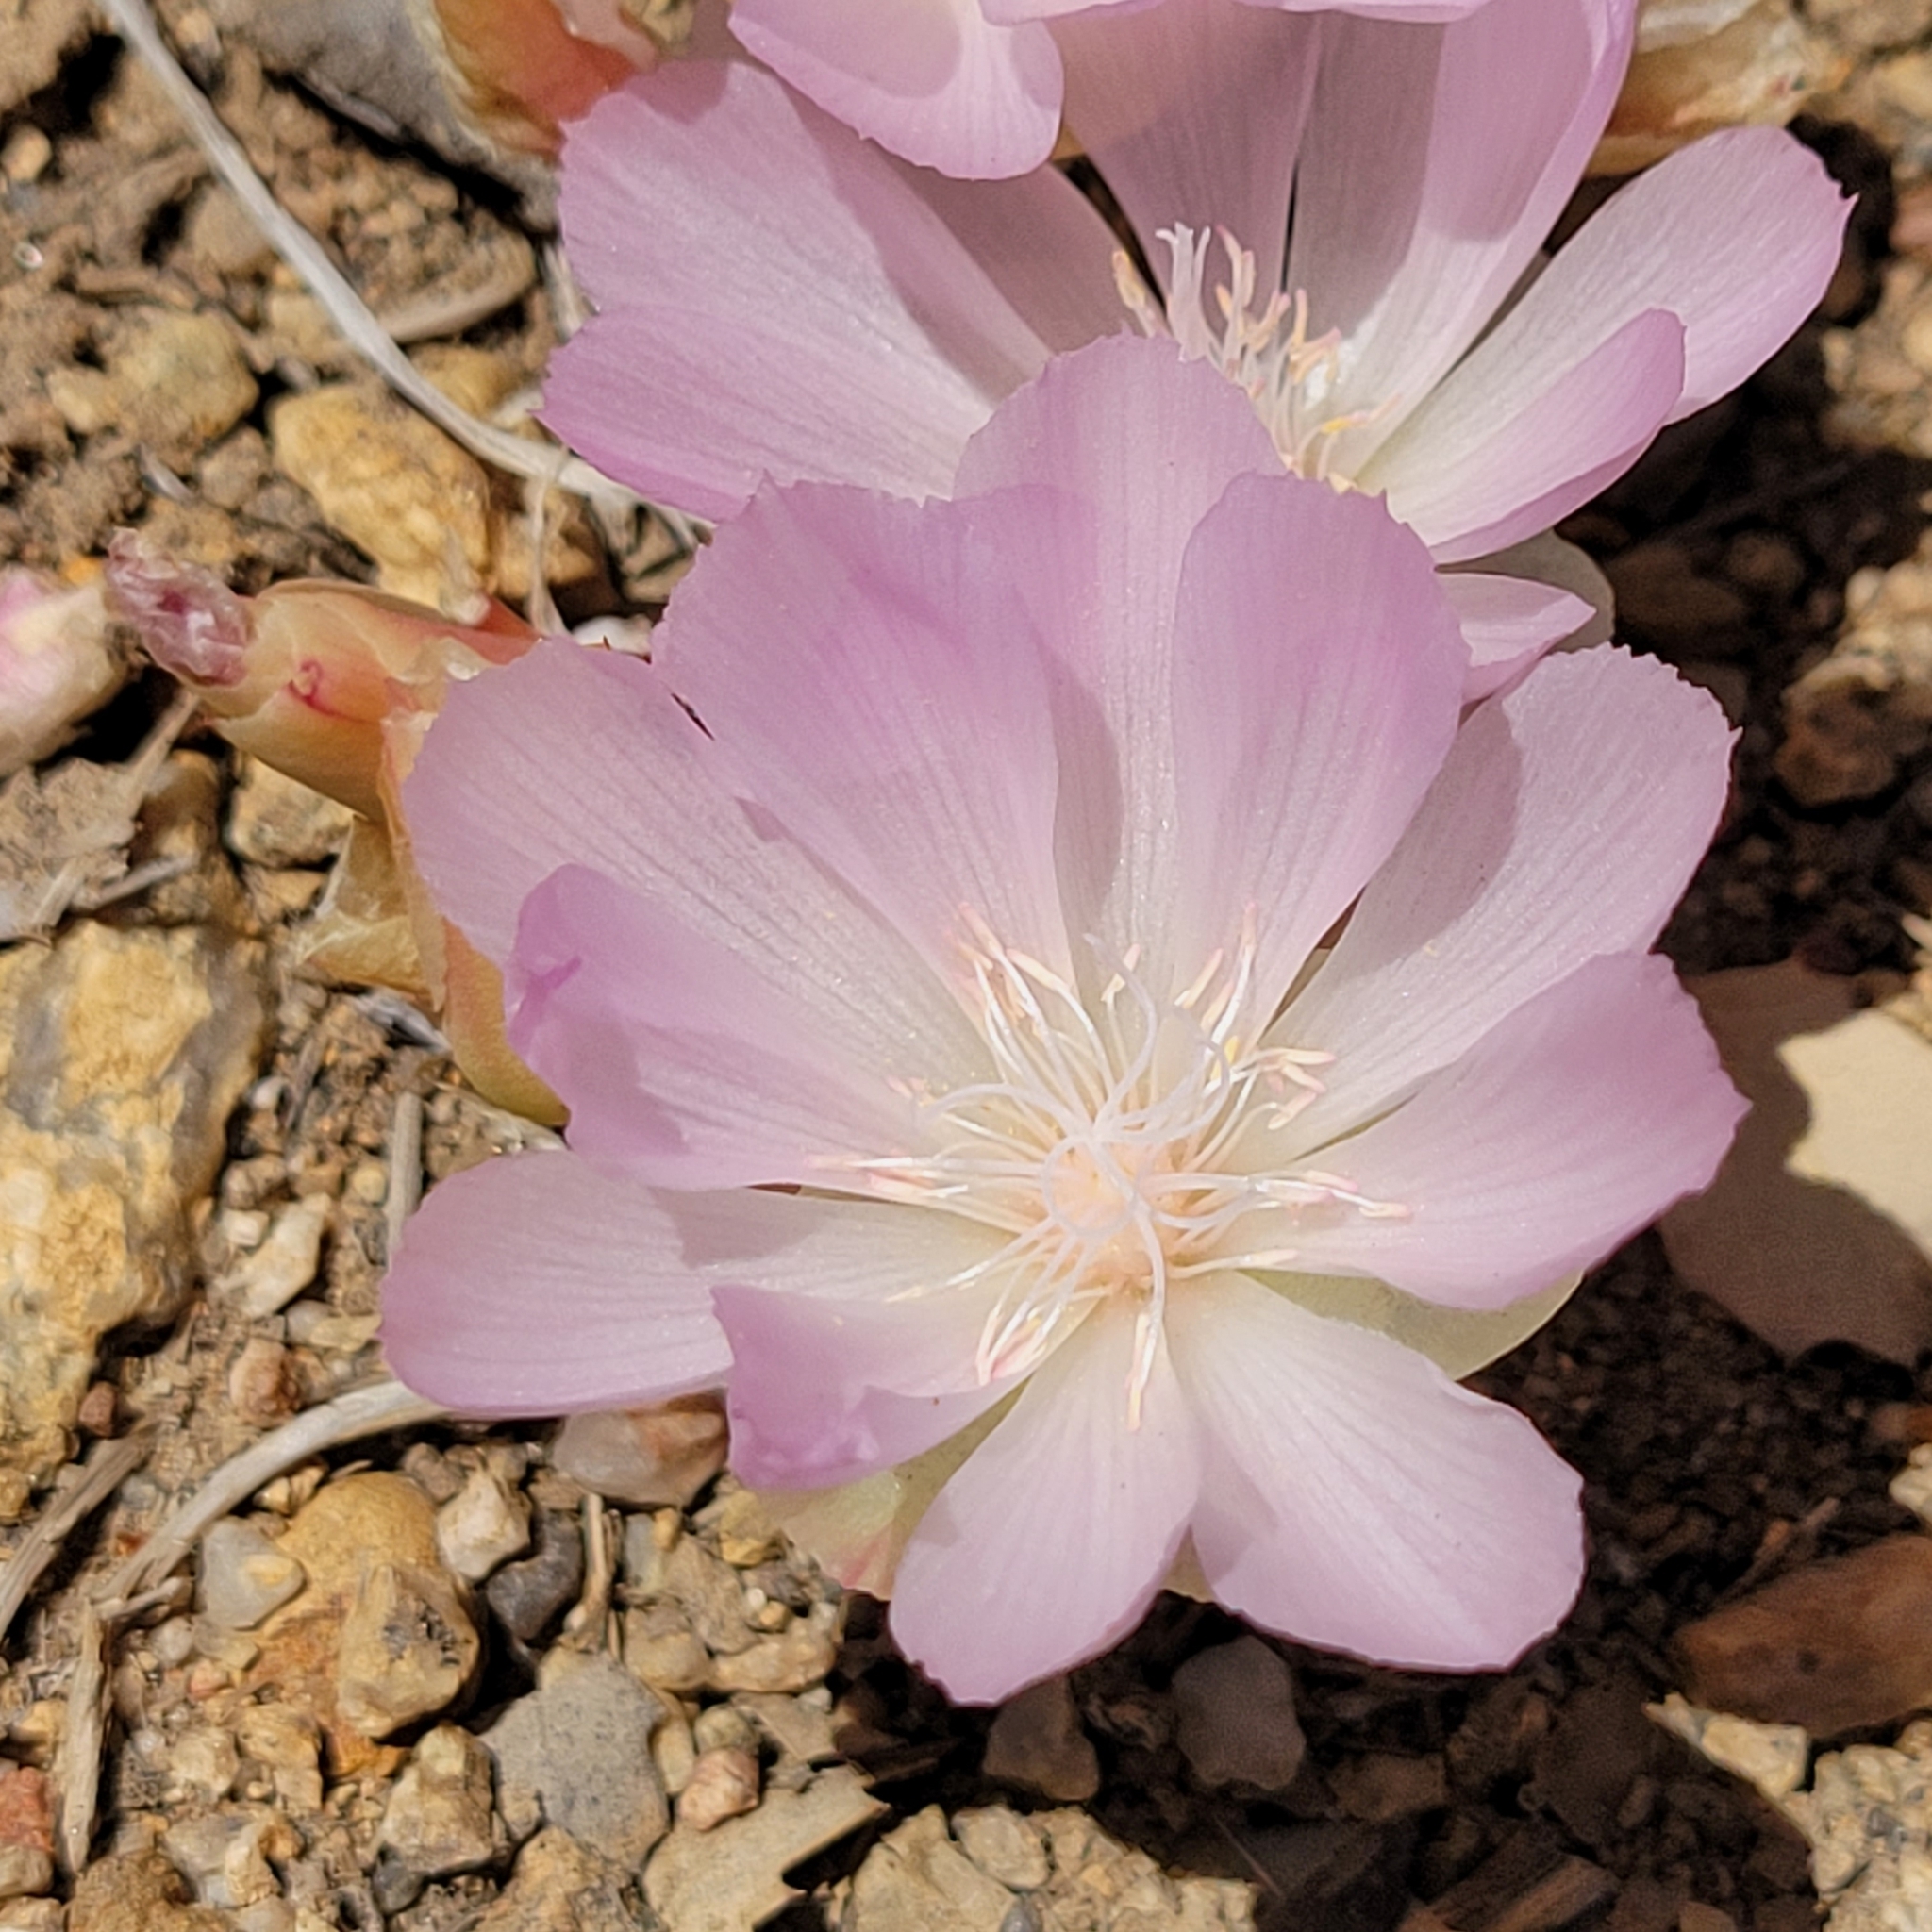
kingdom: Plantae
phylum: Tracheophyta
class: Magnoliopsida
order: Caryophyllales
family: Montiaceae
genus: Lewisia
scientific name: Lewisia rediviva
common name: Bitter-root
